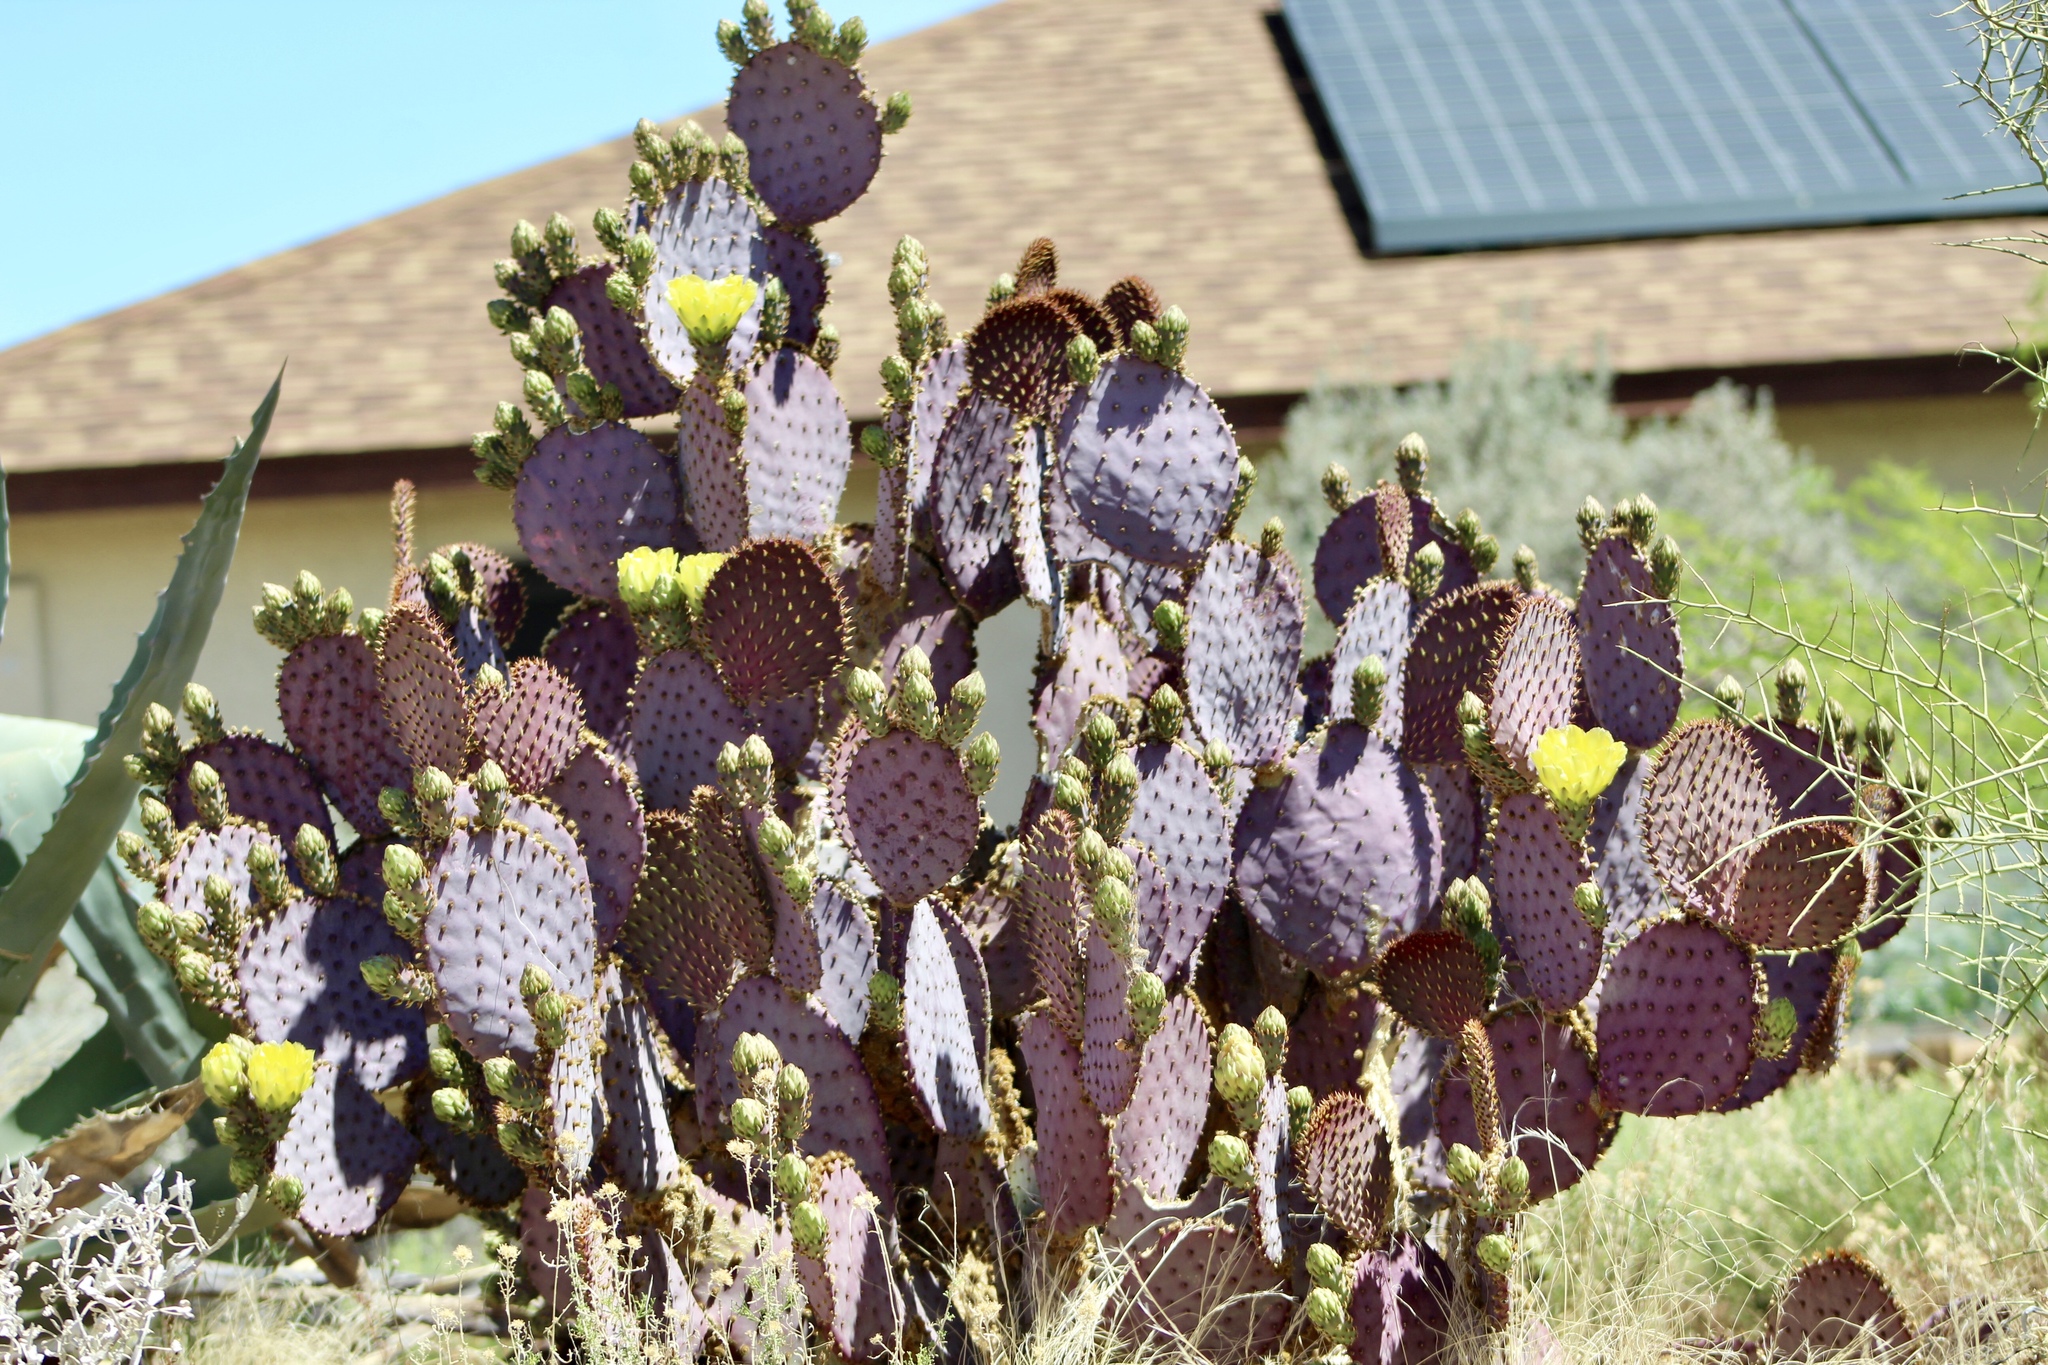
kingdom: Plantae
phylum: Tracheophyta
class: Magnoliopsida
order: Caryophyllales
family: Cactaceae
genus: Opuntia
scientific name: Opuntia gosseliniana
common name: Violet prickly-pear
